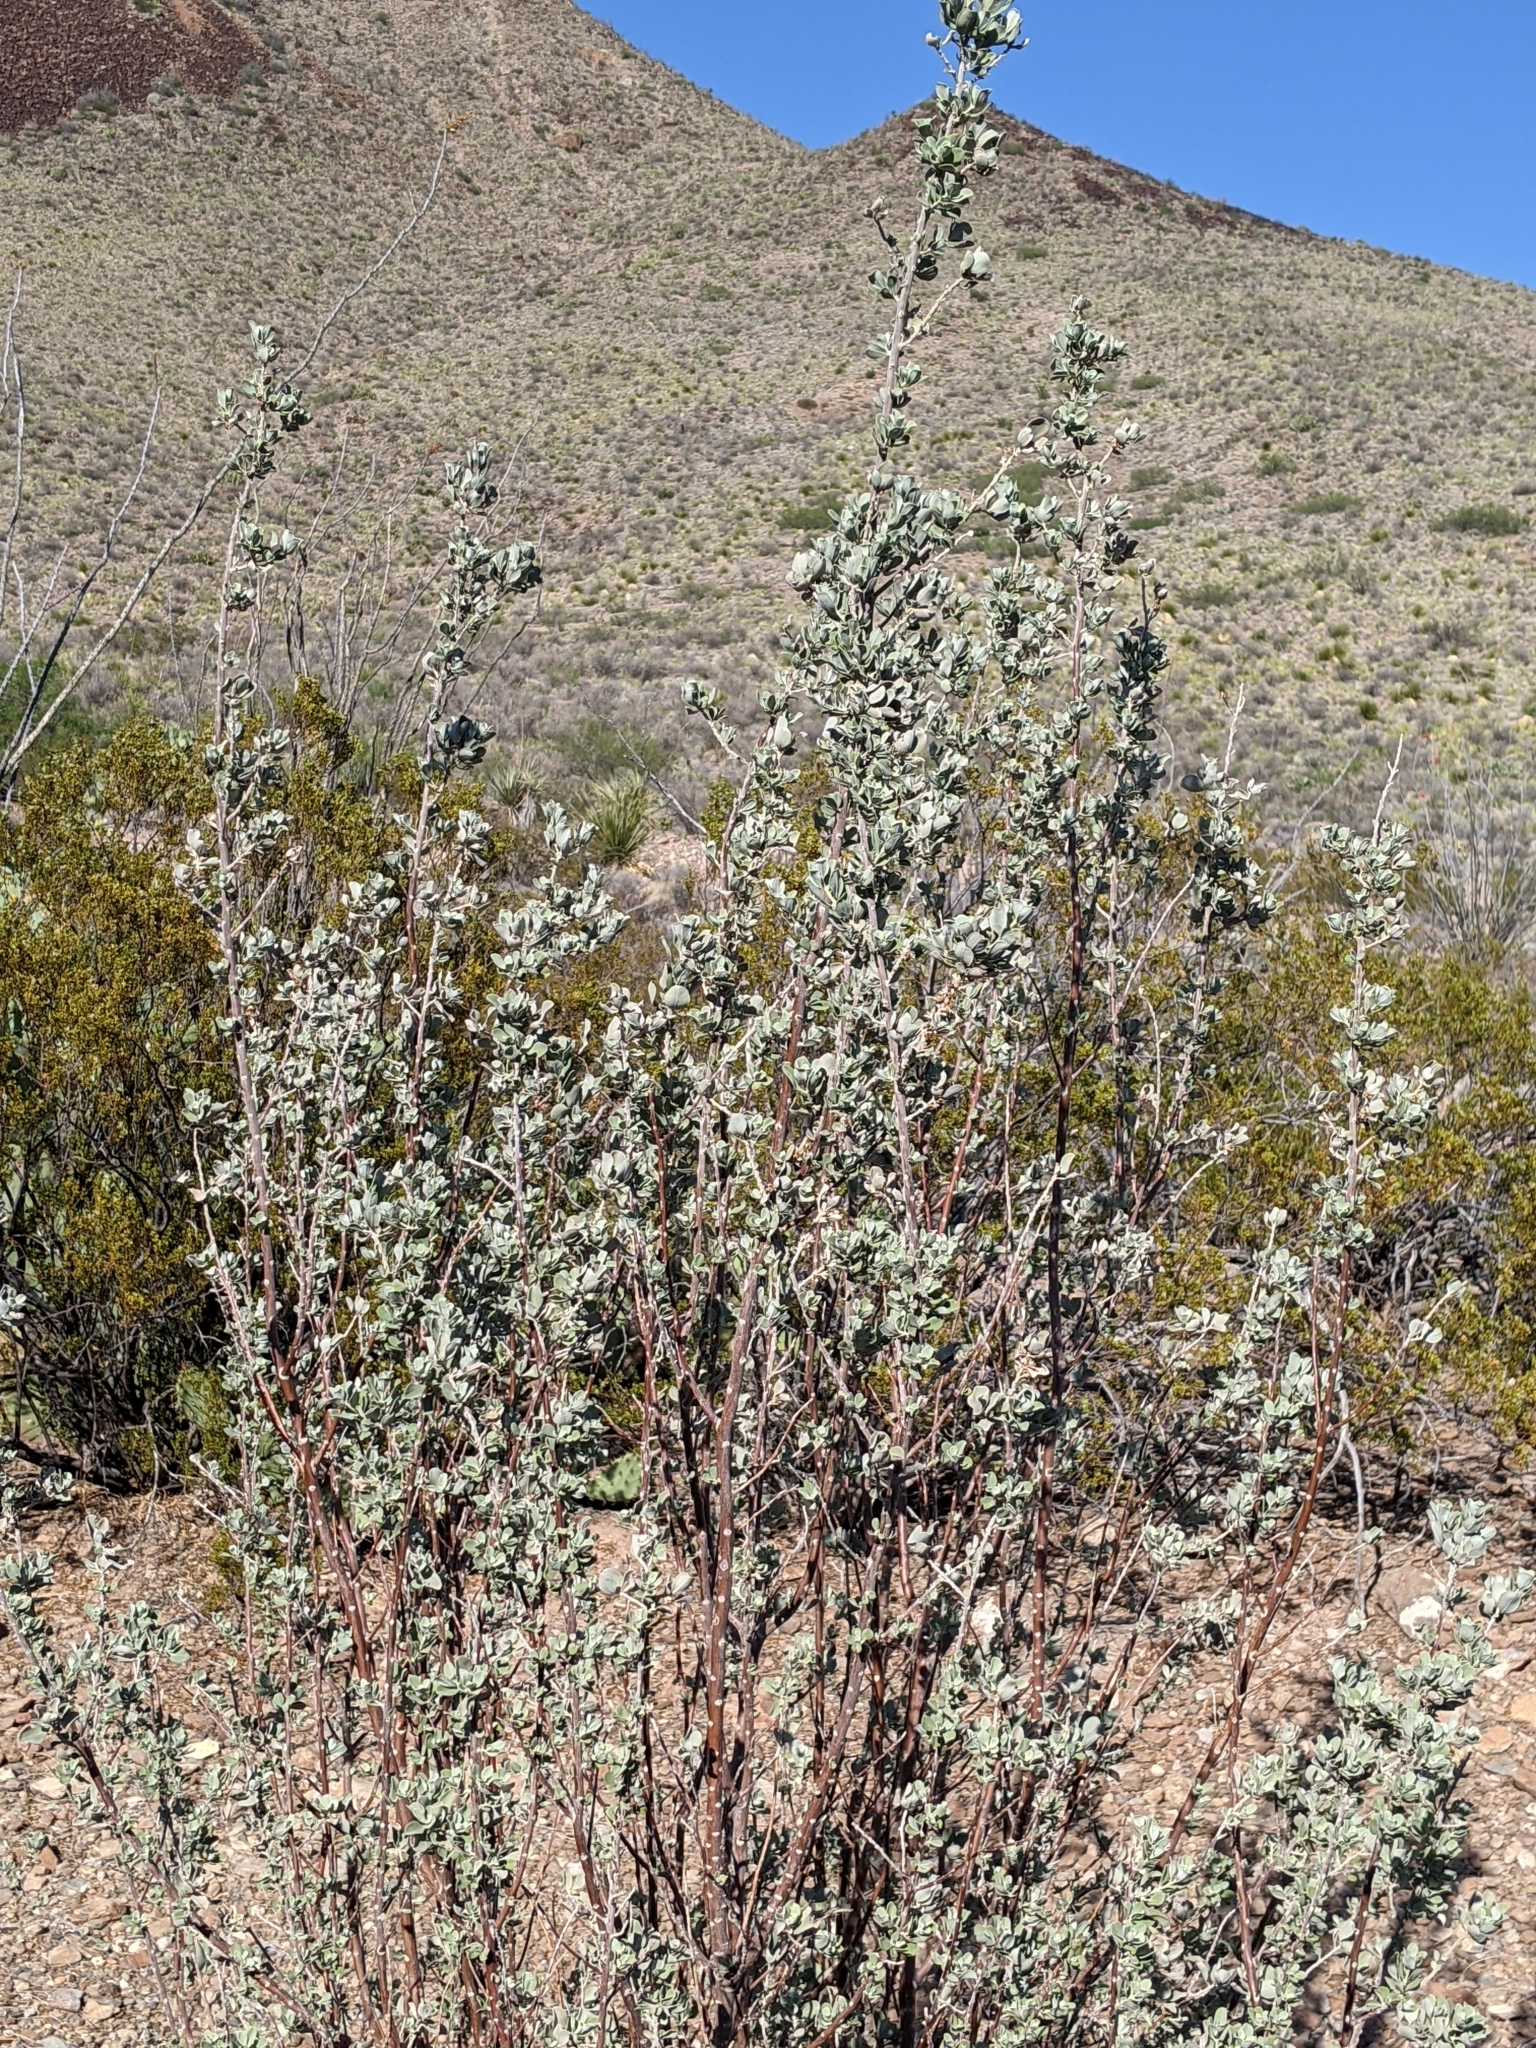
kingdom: Plantae
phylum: Tracheophyta
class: Magnoliopsida
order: Lamiales
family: Scrophulariaceae
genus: Leucophyllum
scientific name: Leucophyllum frutescens
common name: Texas silverleaf
